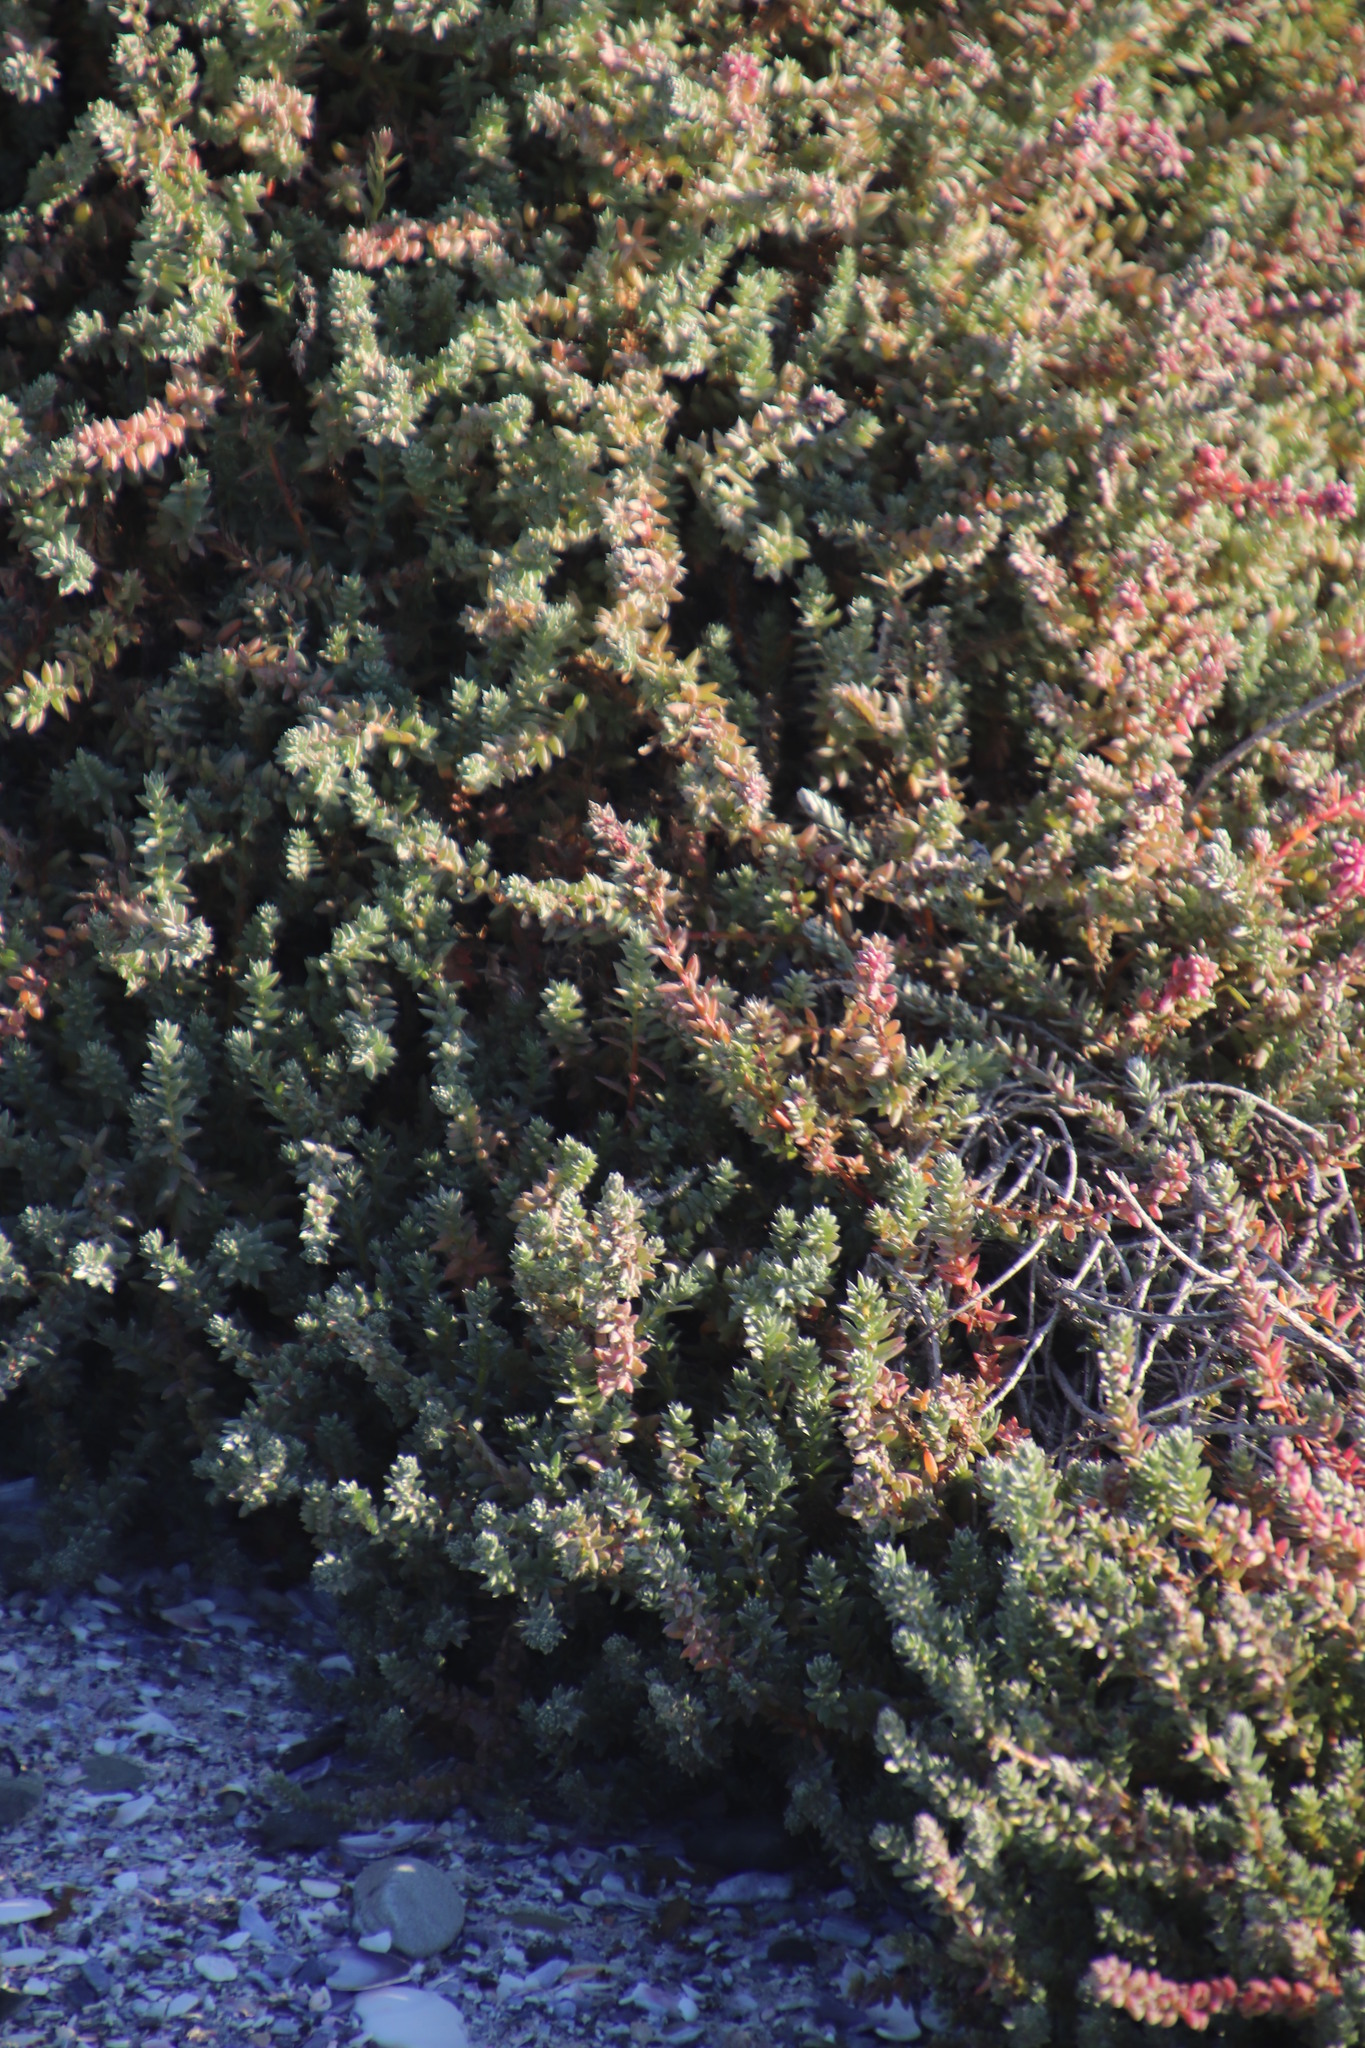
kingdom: Plantae
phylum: Tracheophyta
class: Magnoliopsida
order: Caryophyllales
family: Amaranthaceae
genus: Chenolea
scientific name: Chenolea diffusa
